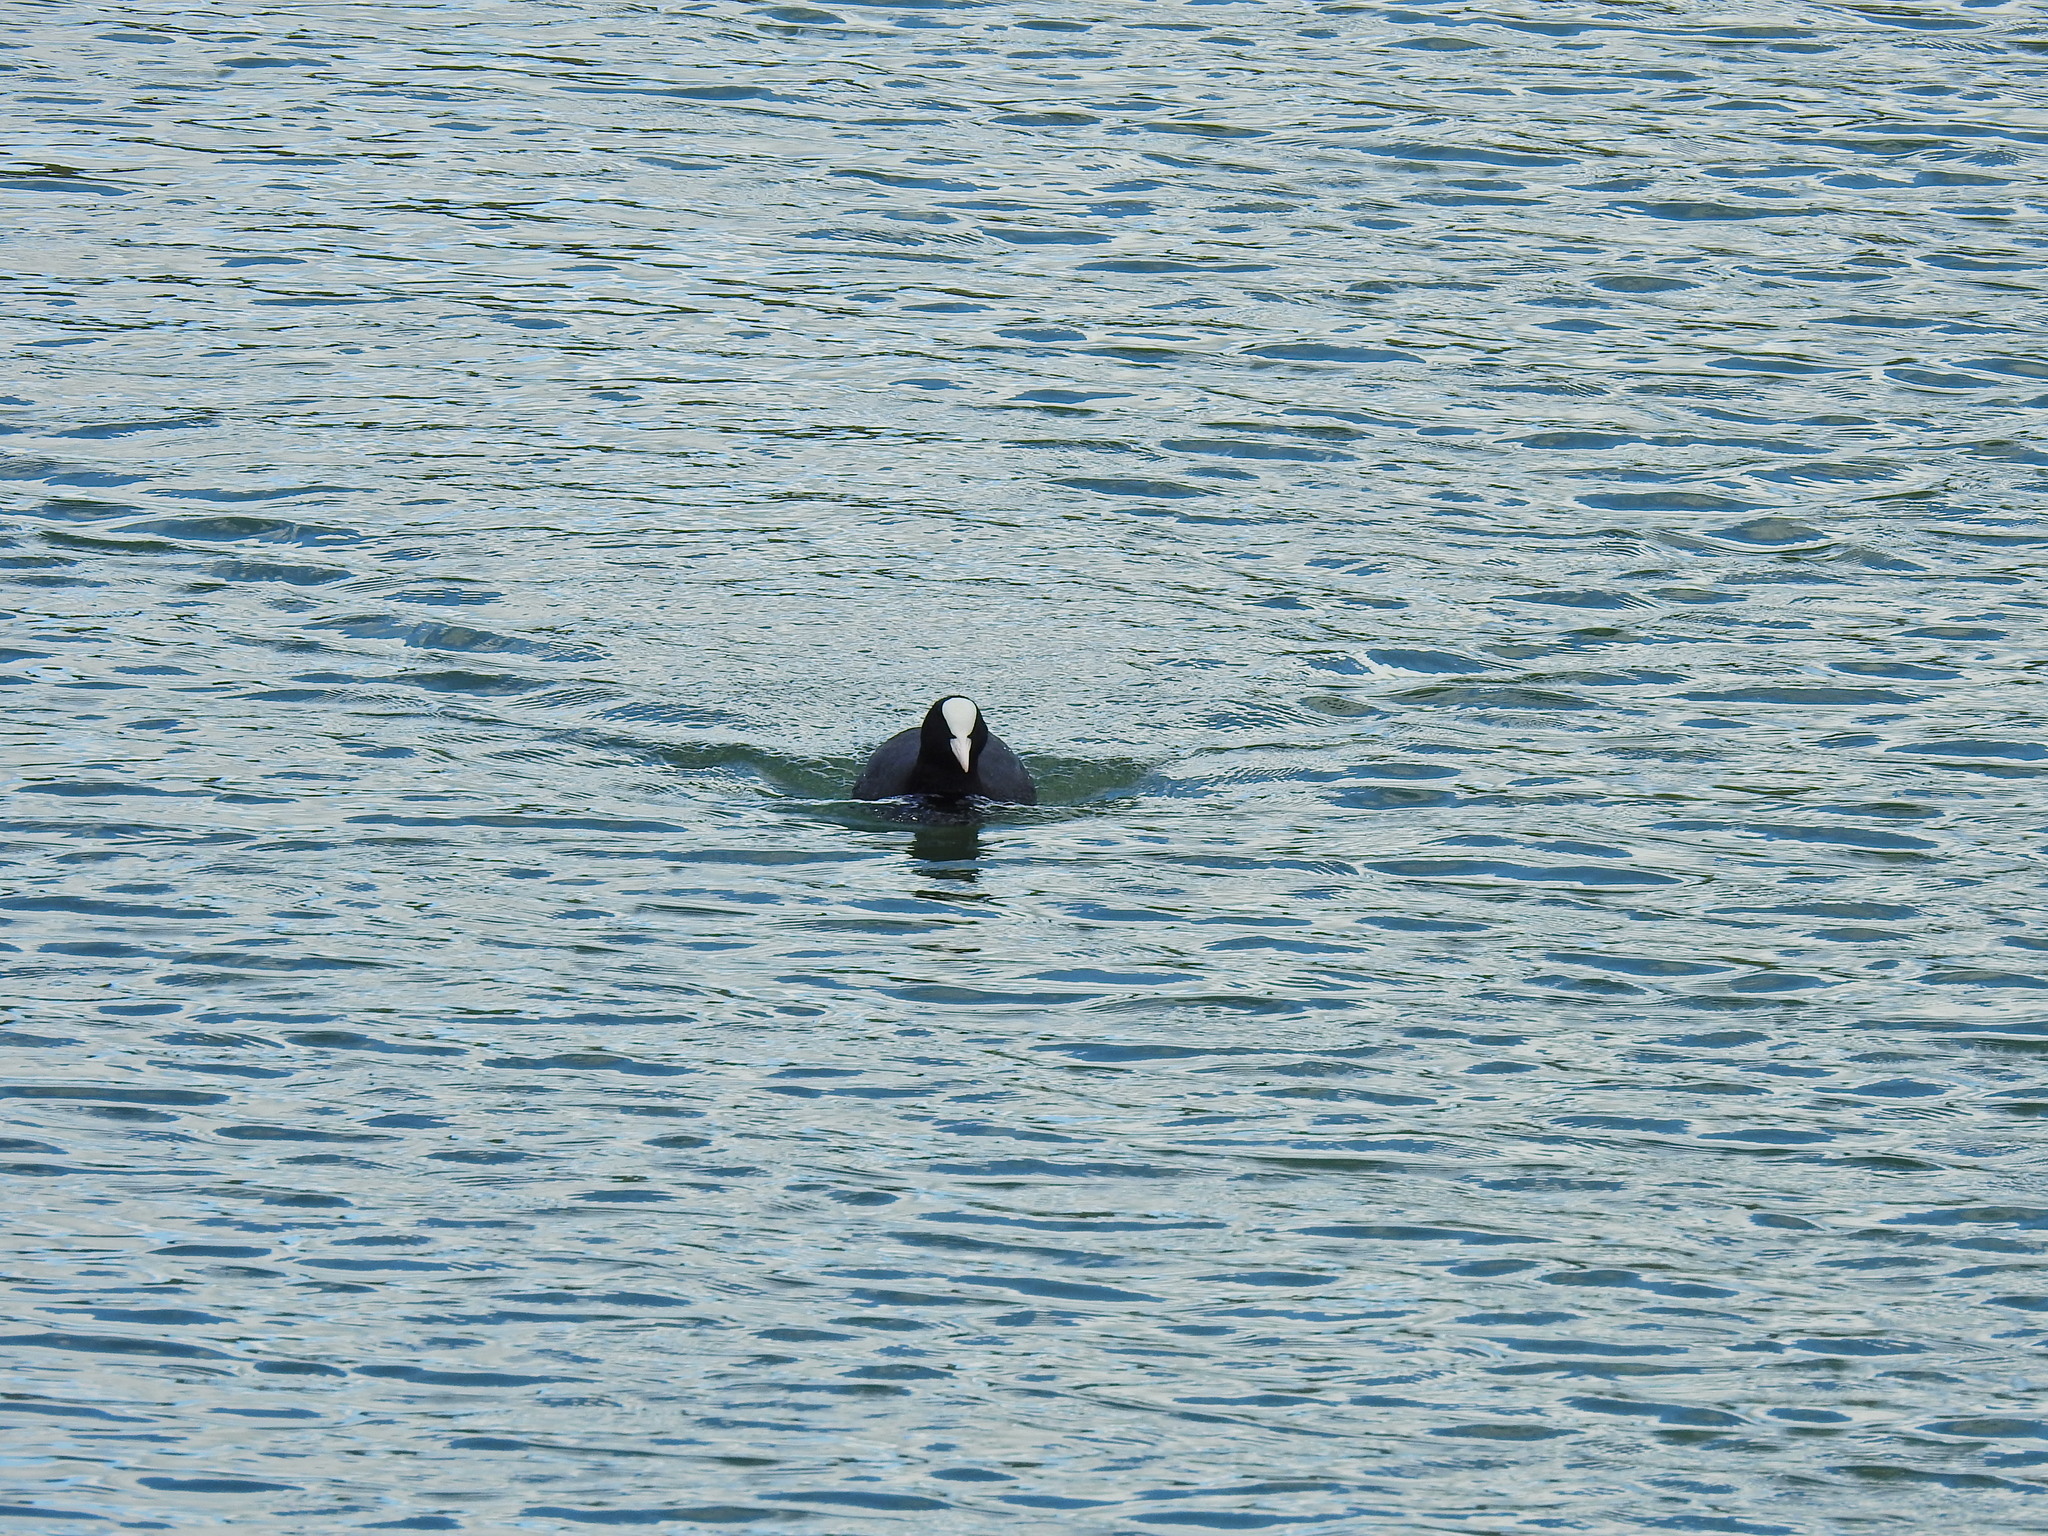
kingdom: Animalia
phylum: Chordata
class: Aves
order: Gruiformes
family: Rallidae
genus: Fulica
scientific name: Fulica atra
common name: Eurasian coot
